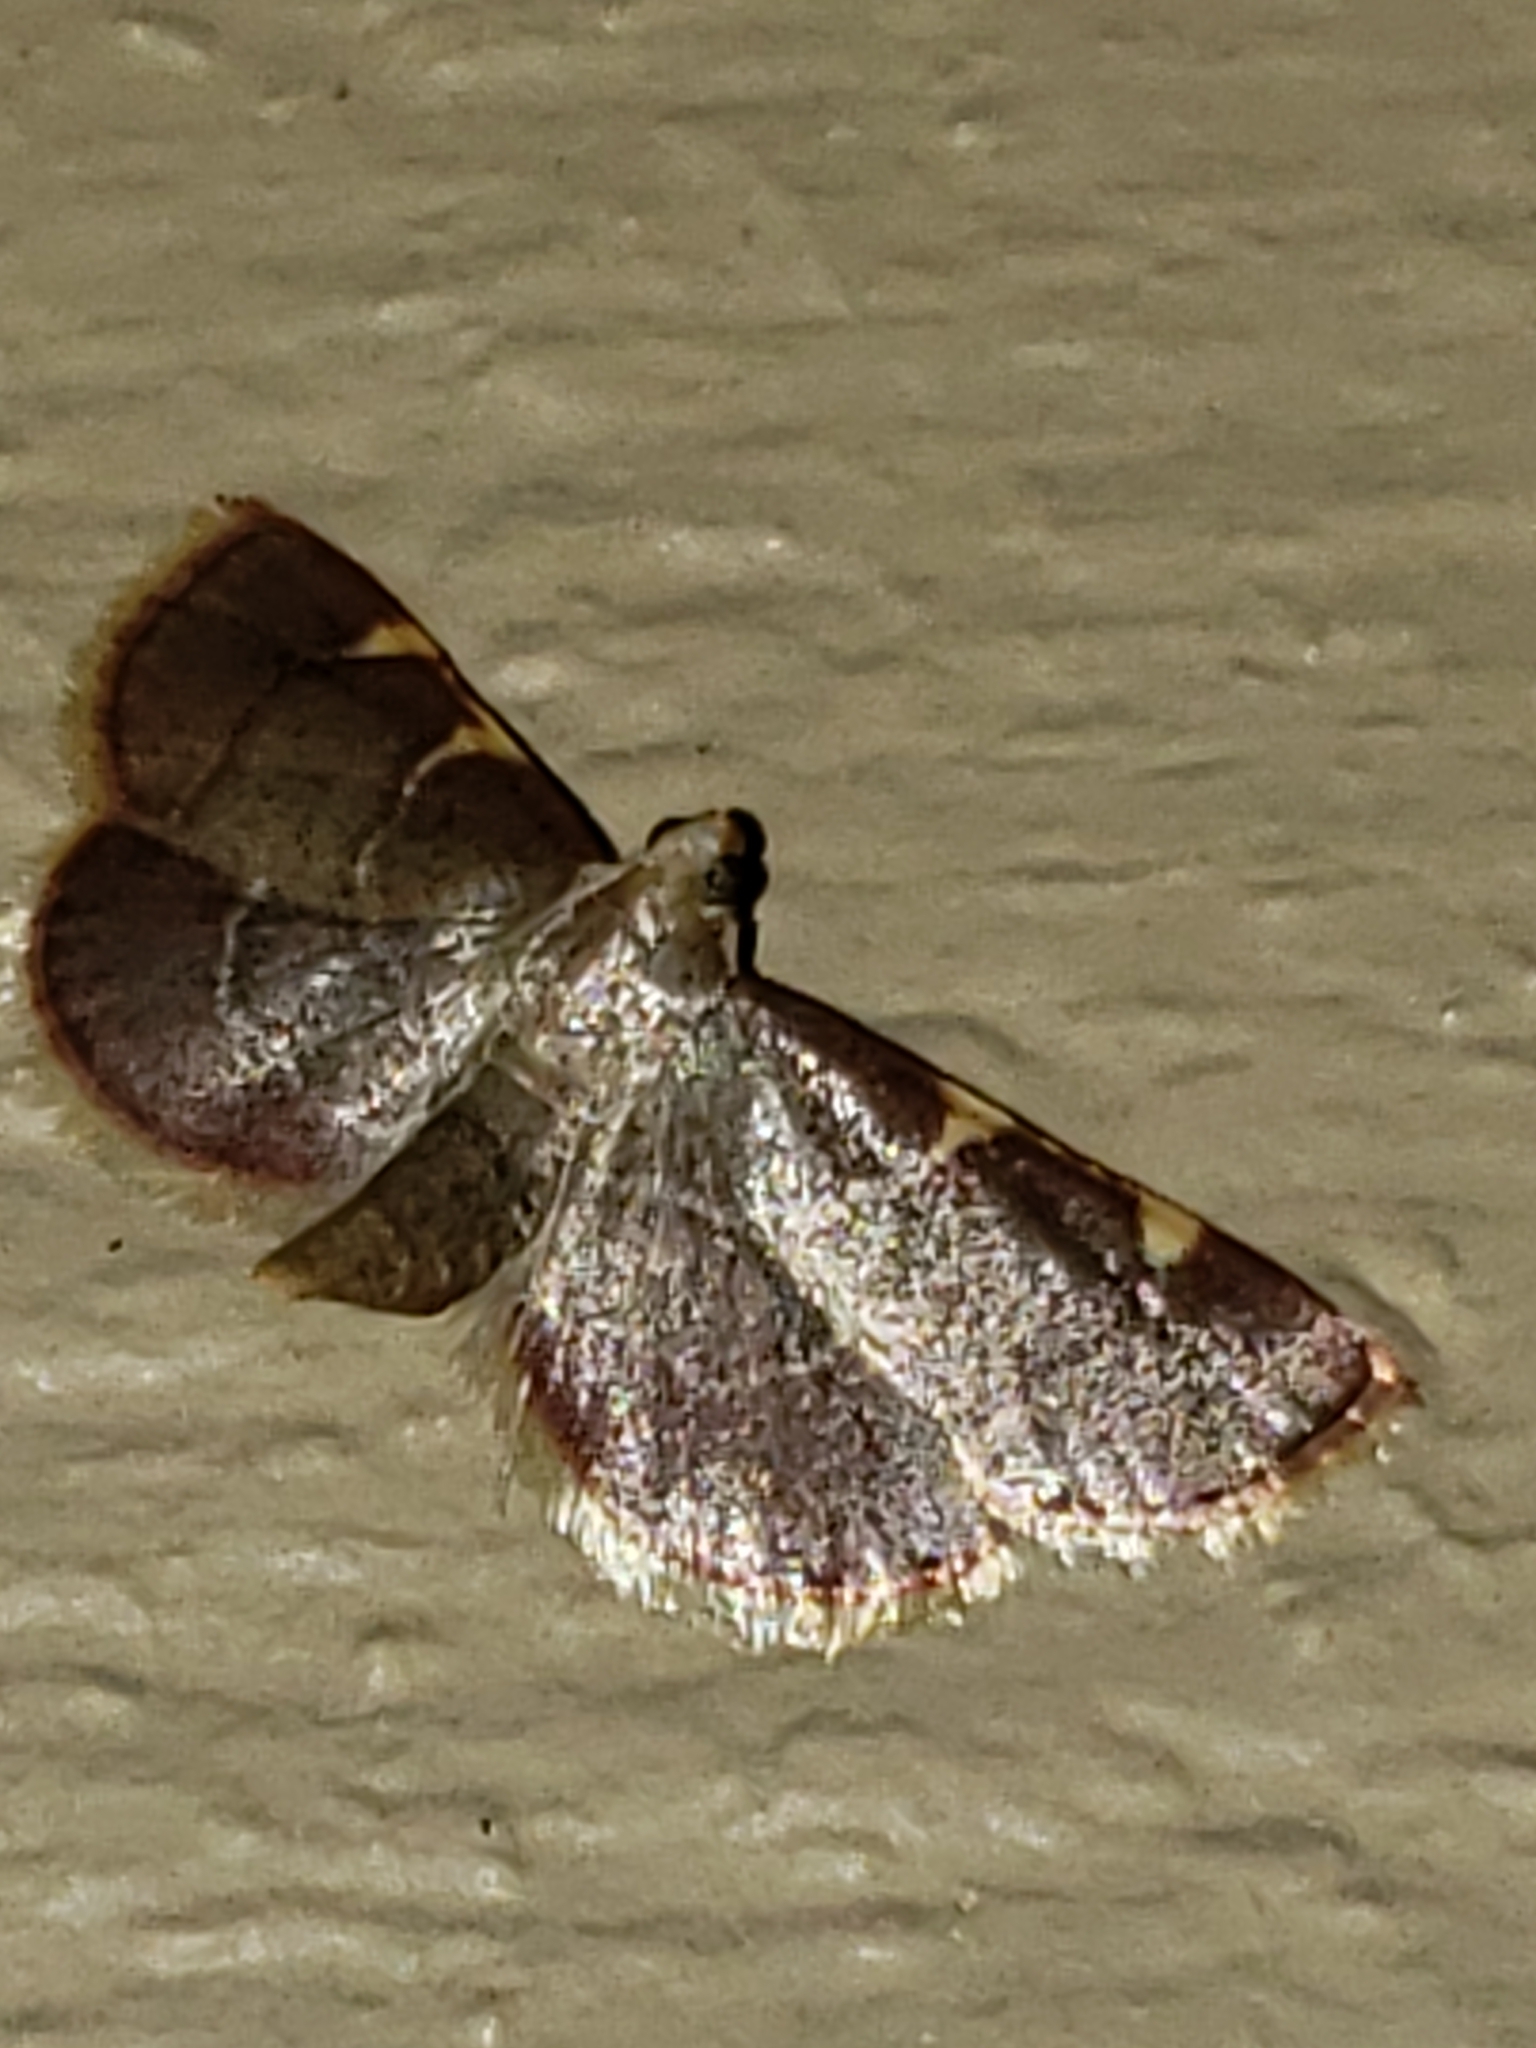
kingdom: Animalia
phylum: Arthropoda
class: Insecta
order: Lepidoptera
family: Pyralidae
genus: Hypsopygia
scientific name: Hypsopygia olinalis
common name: Yellow-fringed dolichomia moth
